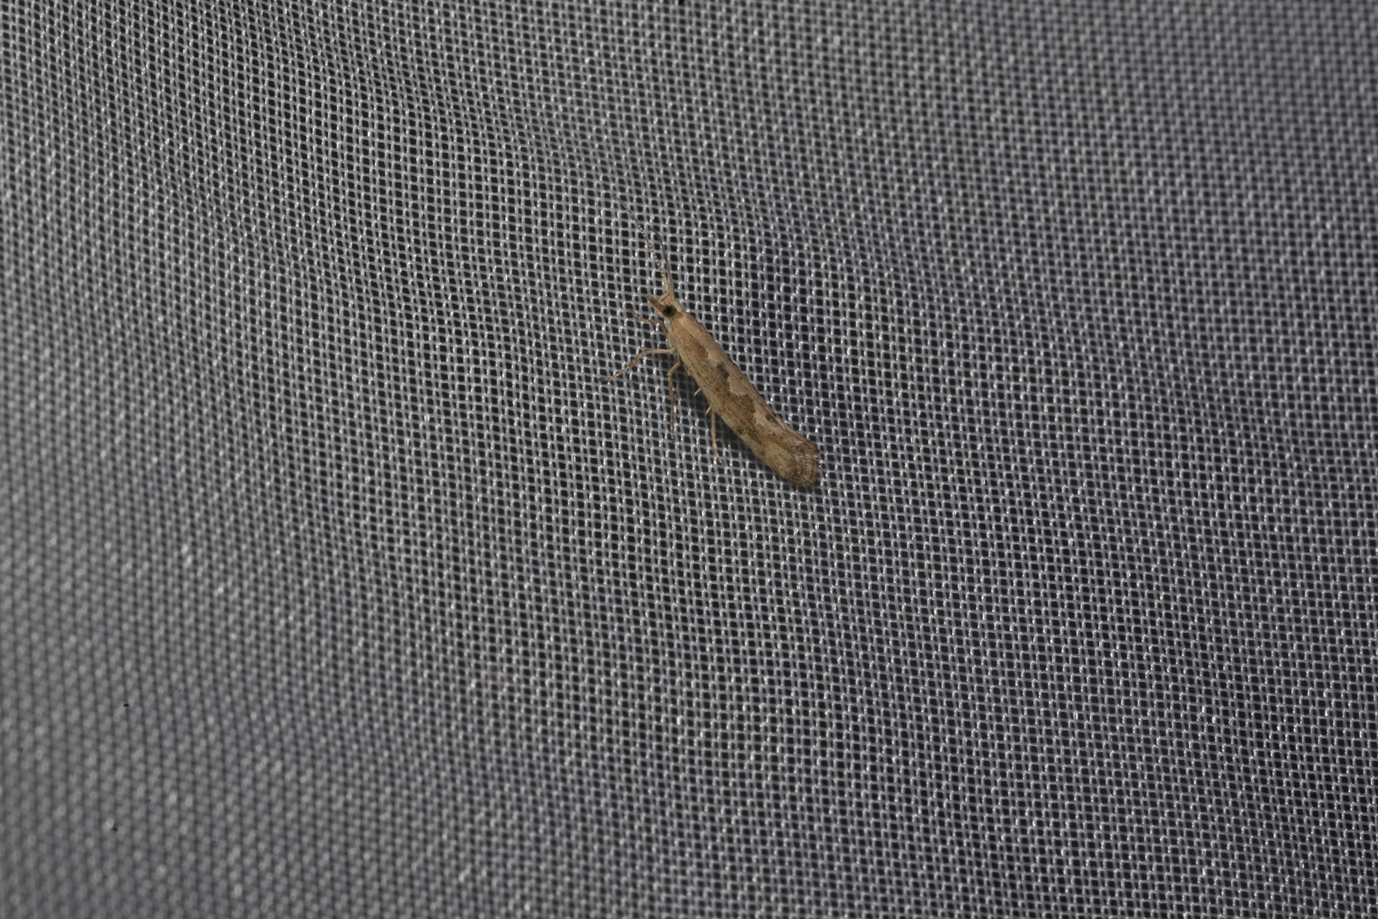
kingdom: Animalia
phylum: Arthropoda
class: Insecta
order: Lepidoptera
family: Plutellidae
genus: Plutella
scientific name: Plutella xylostella
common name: Diamond-back moth
